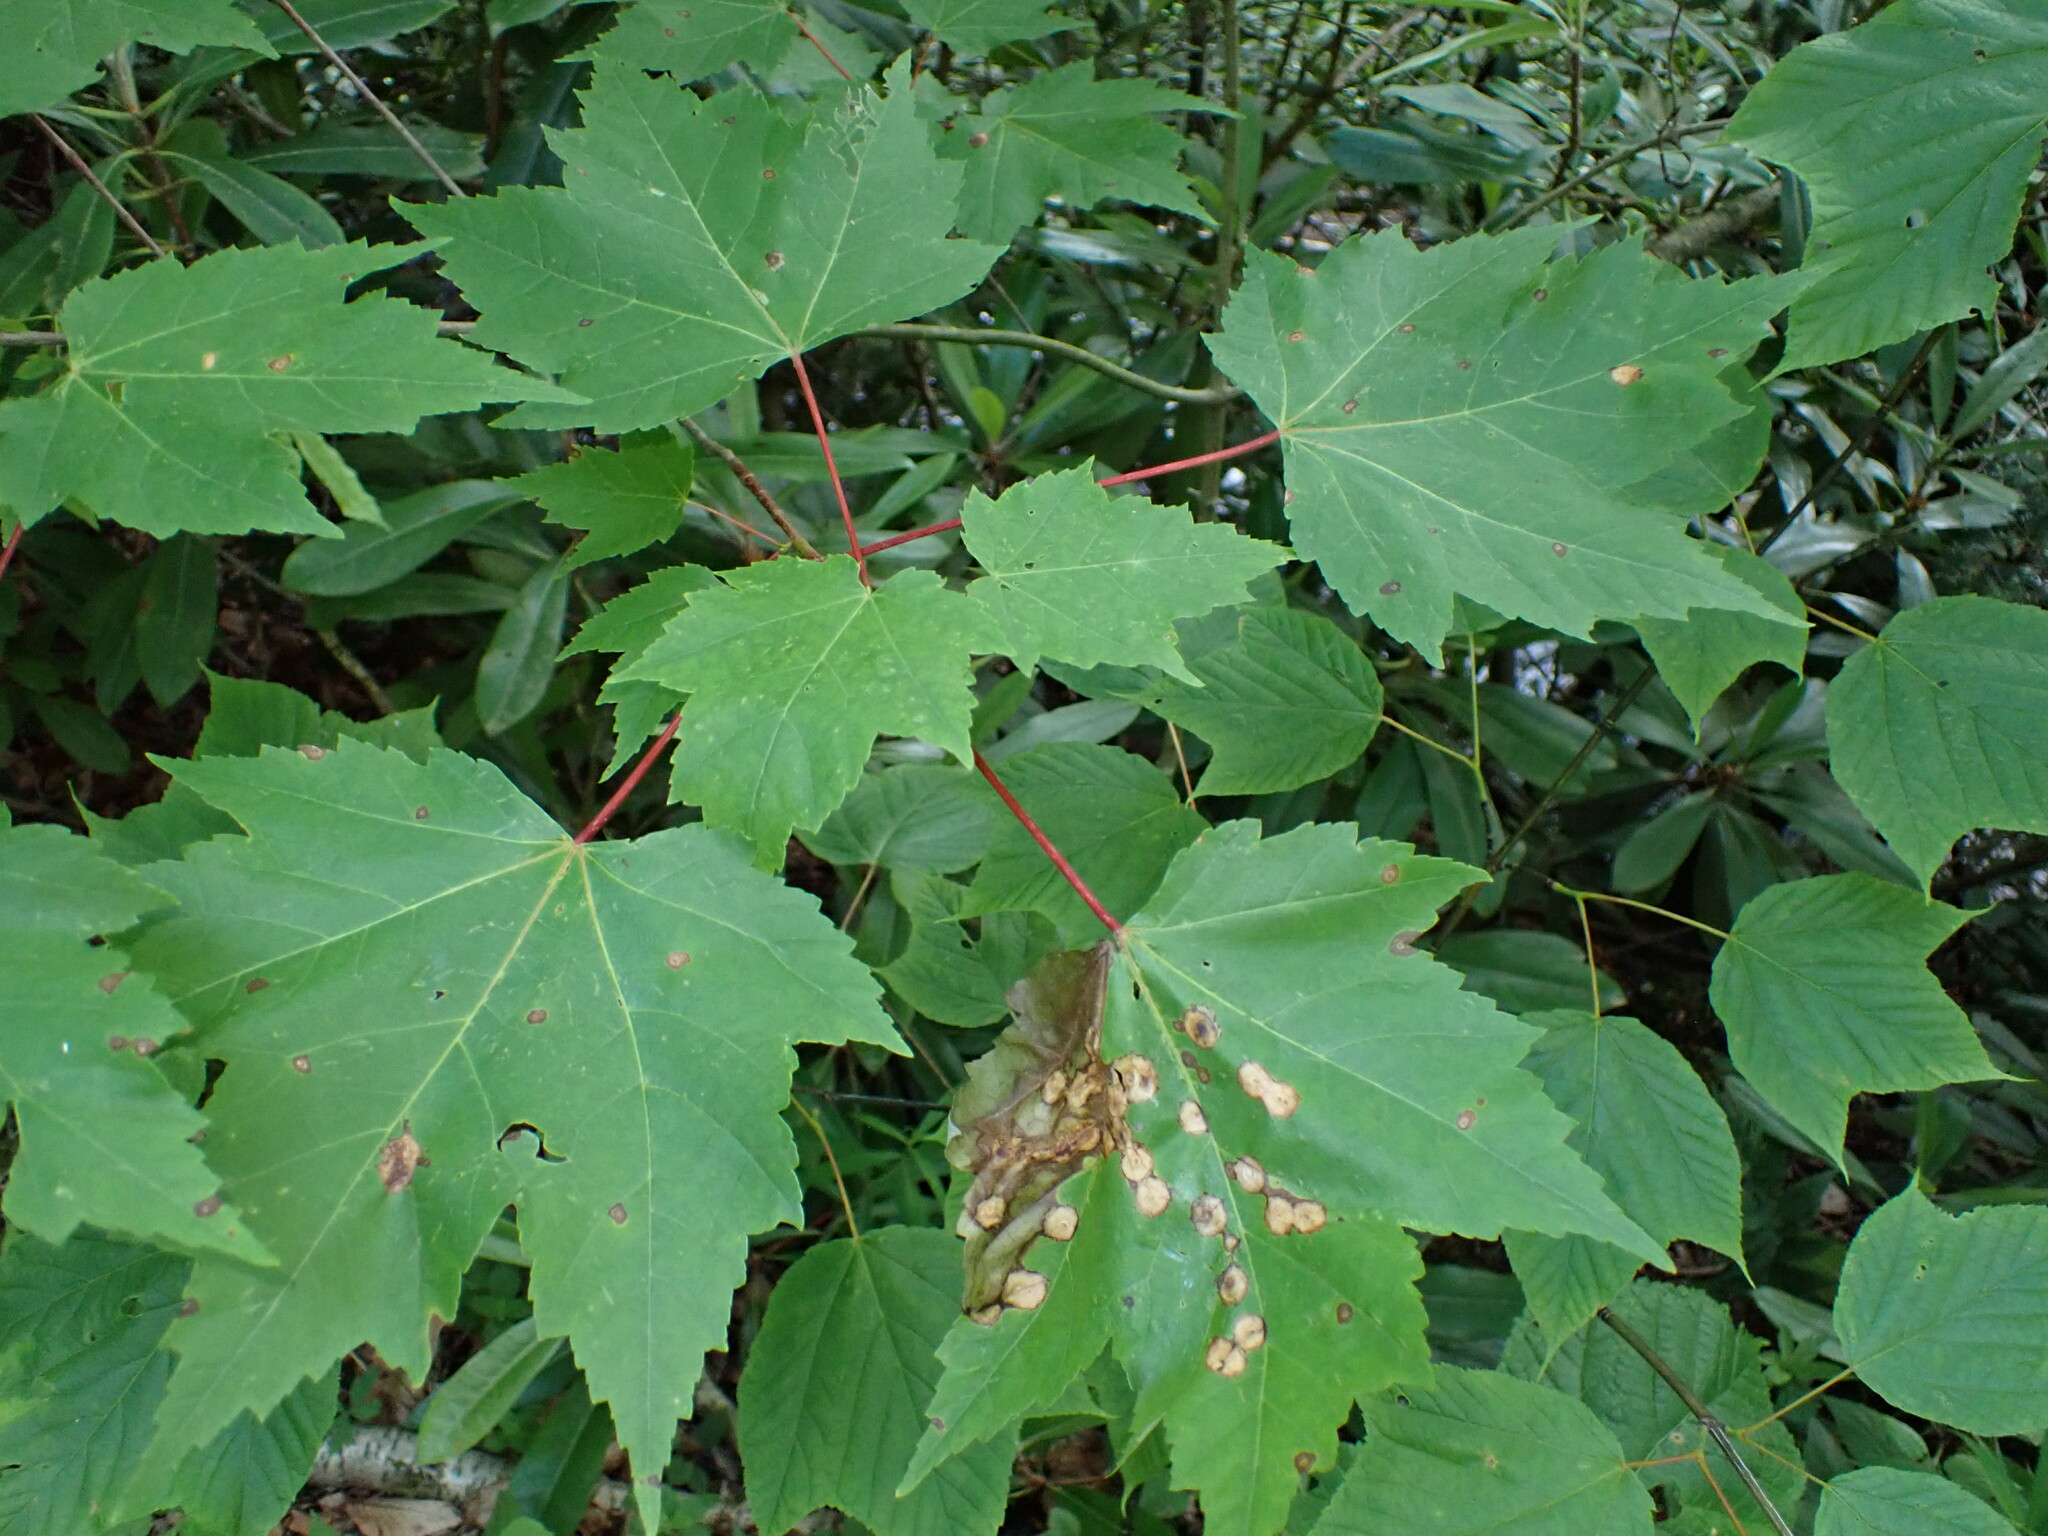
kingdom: Plantae
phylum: Tracheophyta
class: Magnoliopsida
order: Sapindales
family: Sapindaceae
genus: Acer
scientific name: Acer rubrum
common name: Red maple
